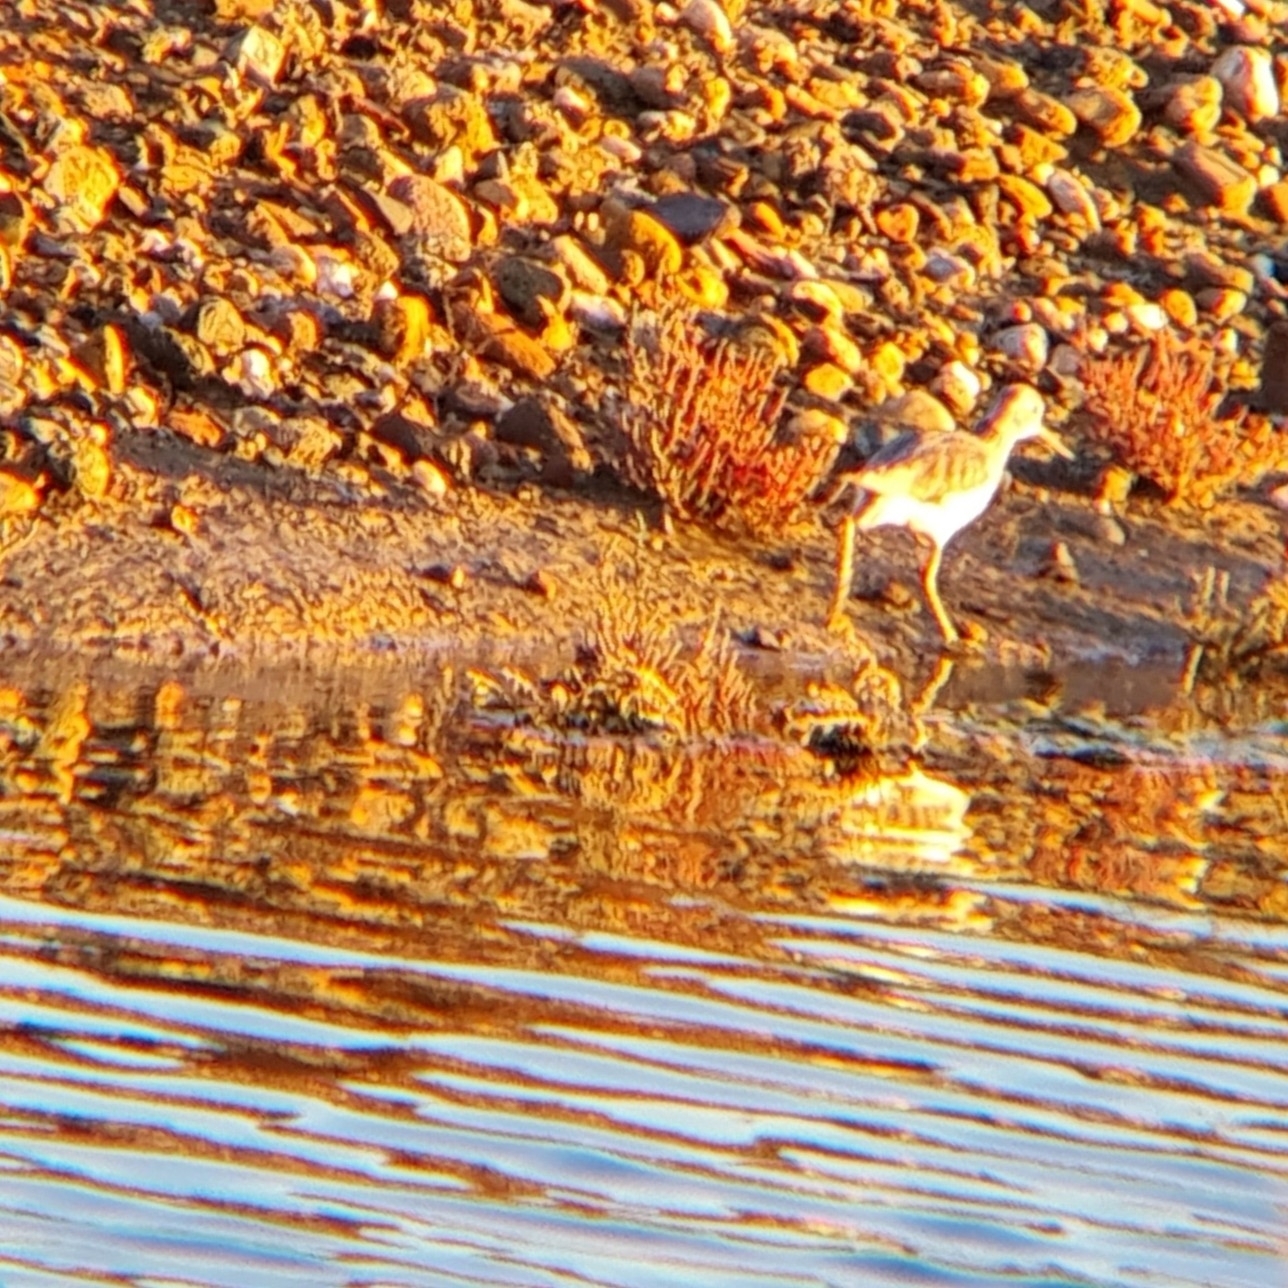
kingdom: Animalia
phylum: Chordata
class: Aves
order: Charadriiformes
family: Scolopacidae
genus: Tringa
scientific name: Tringa nebularia
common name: Common greenshank
